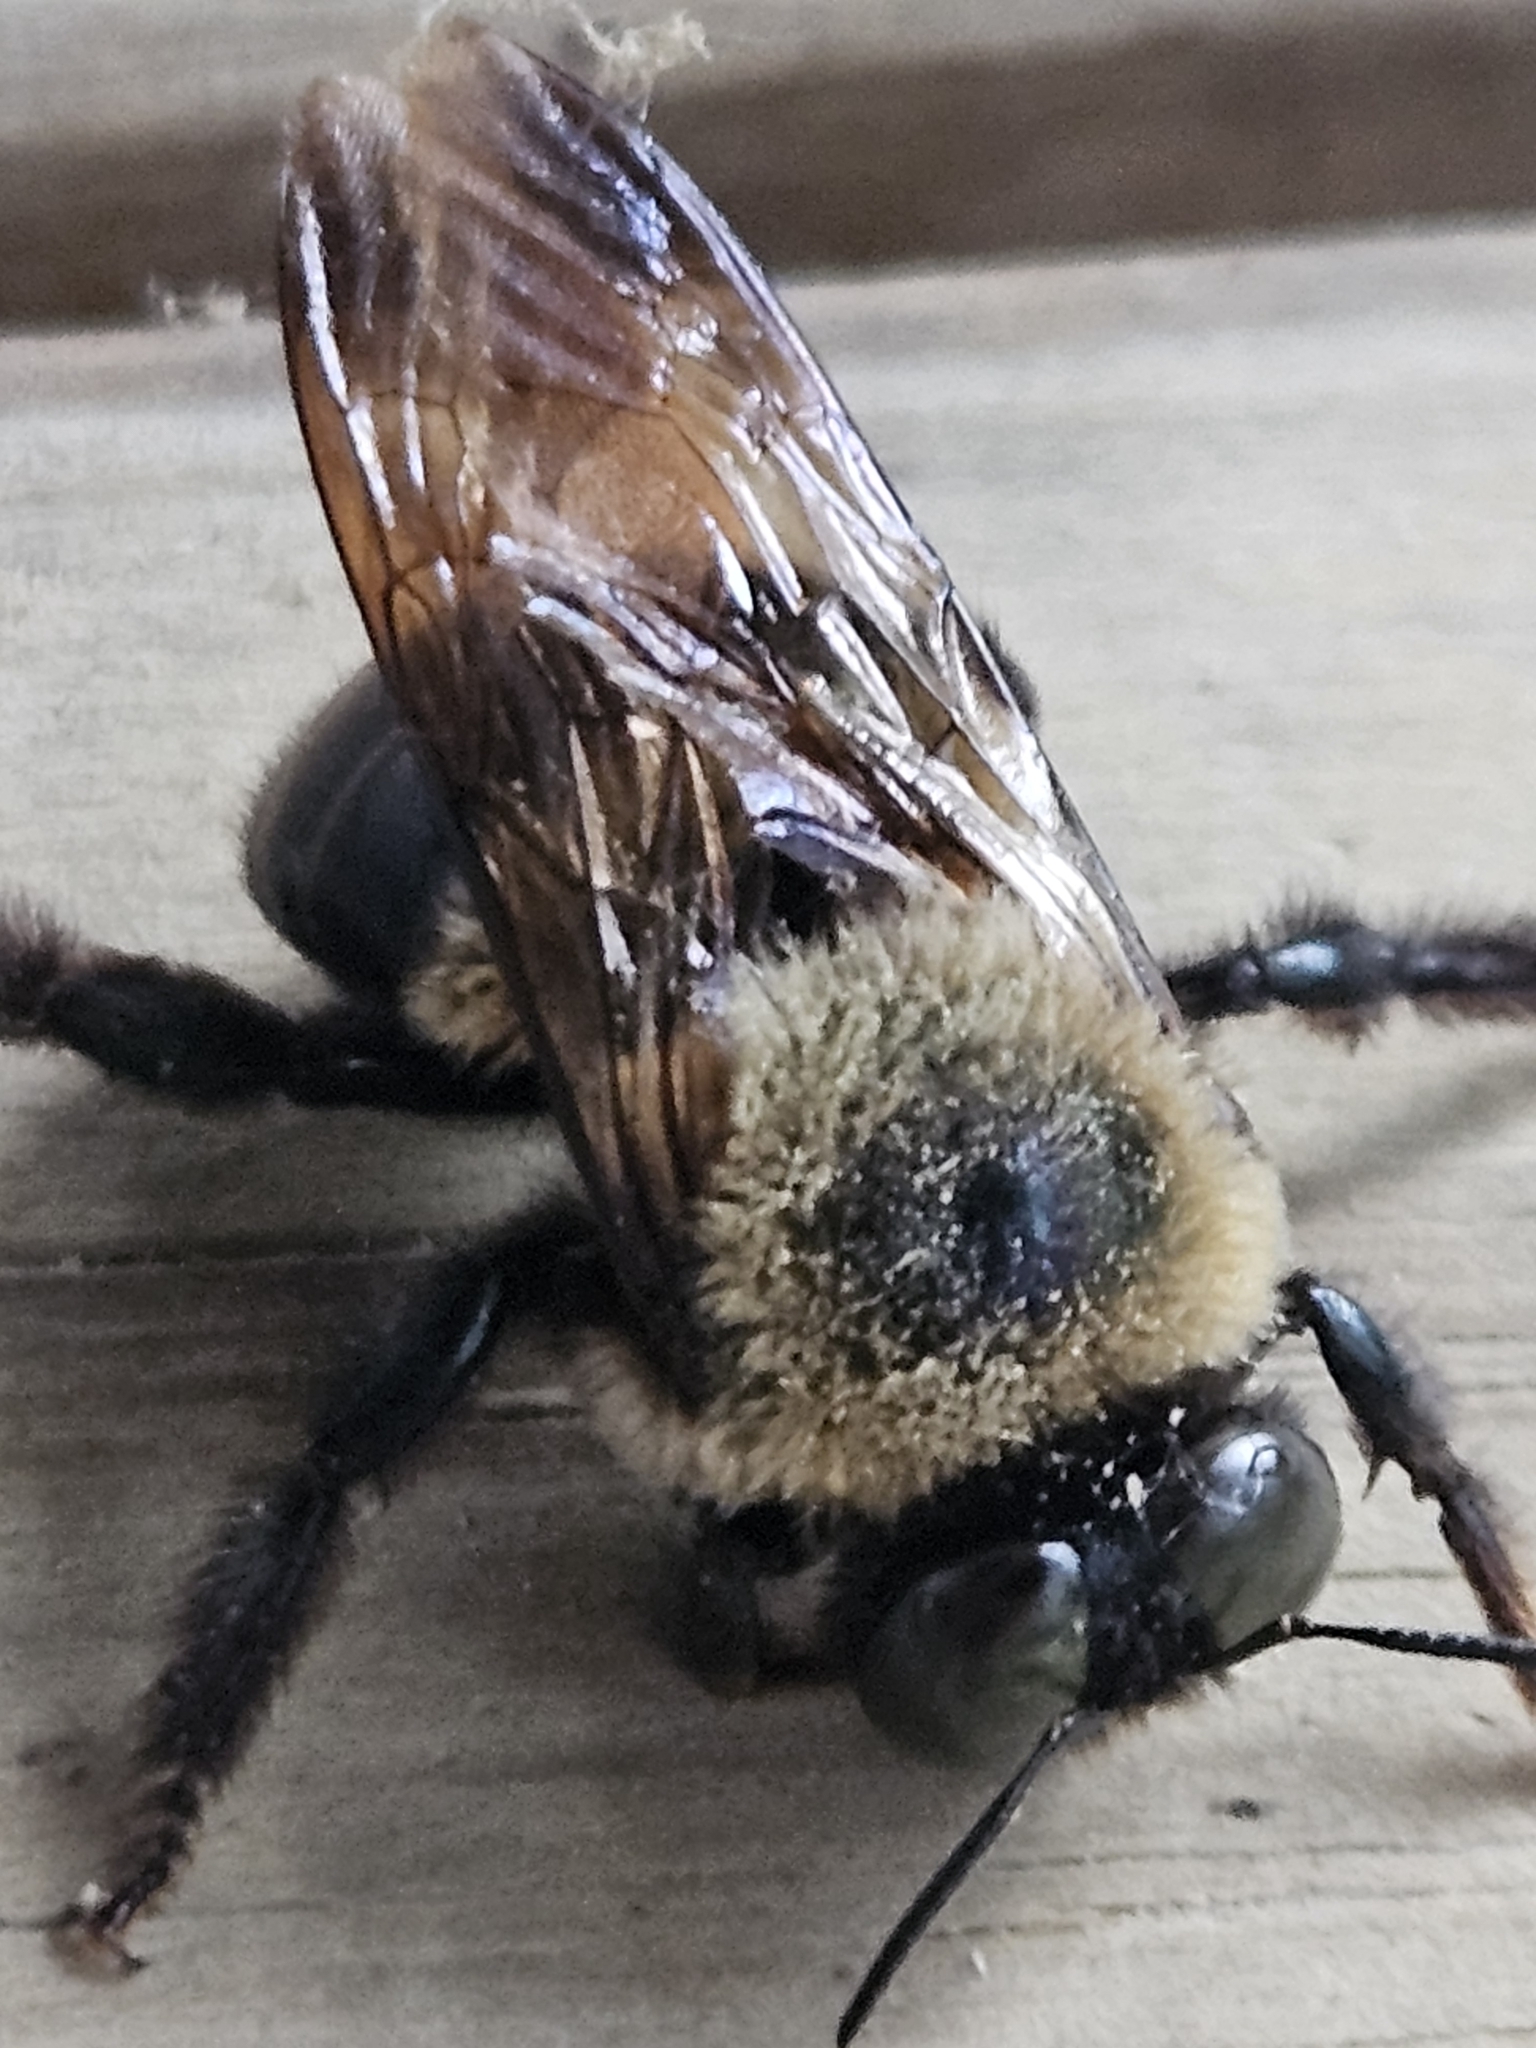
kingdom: Animalia
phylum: Arthropoda
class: Insecta
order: Hymenoptera
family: Apidae
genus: Xylocopa
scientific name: Xylocopa virginica
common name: Carpenter bee
